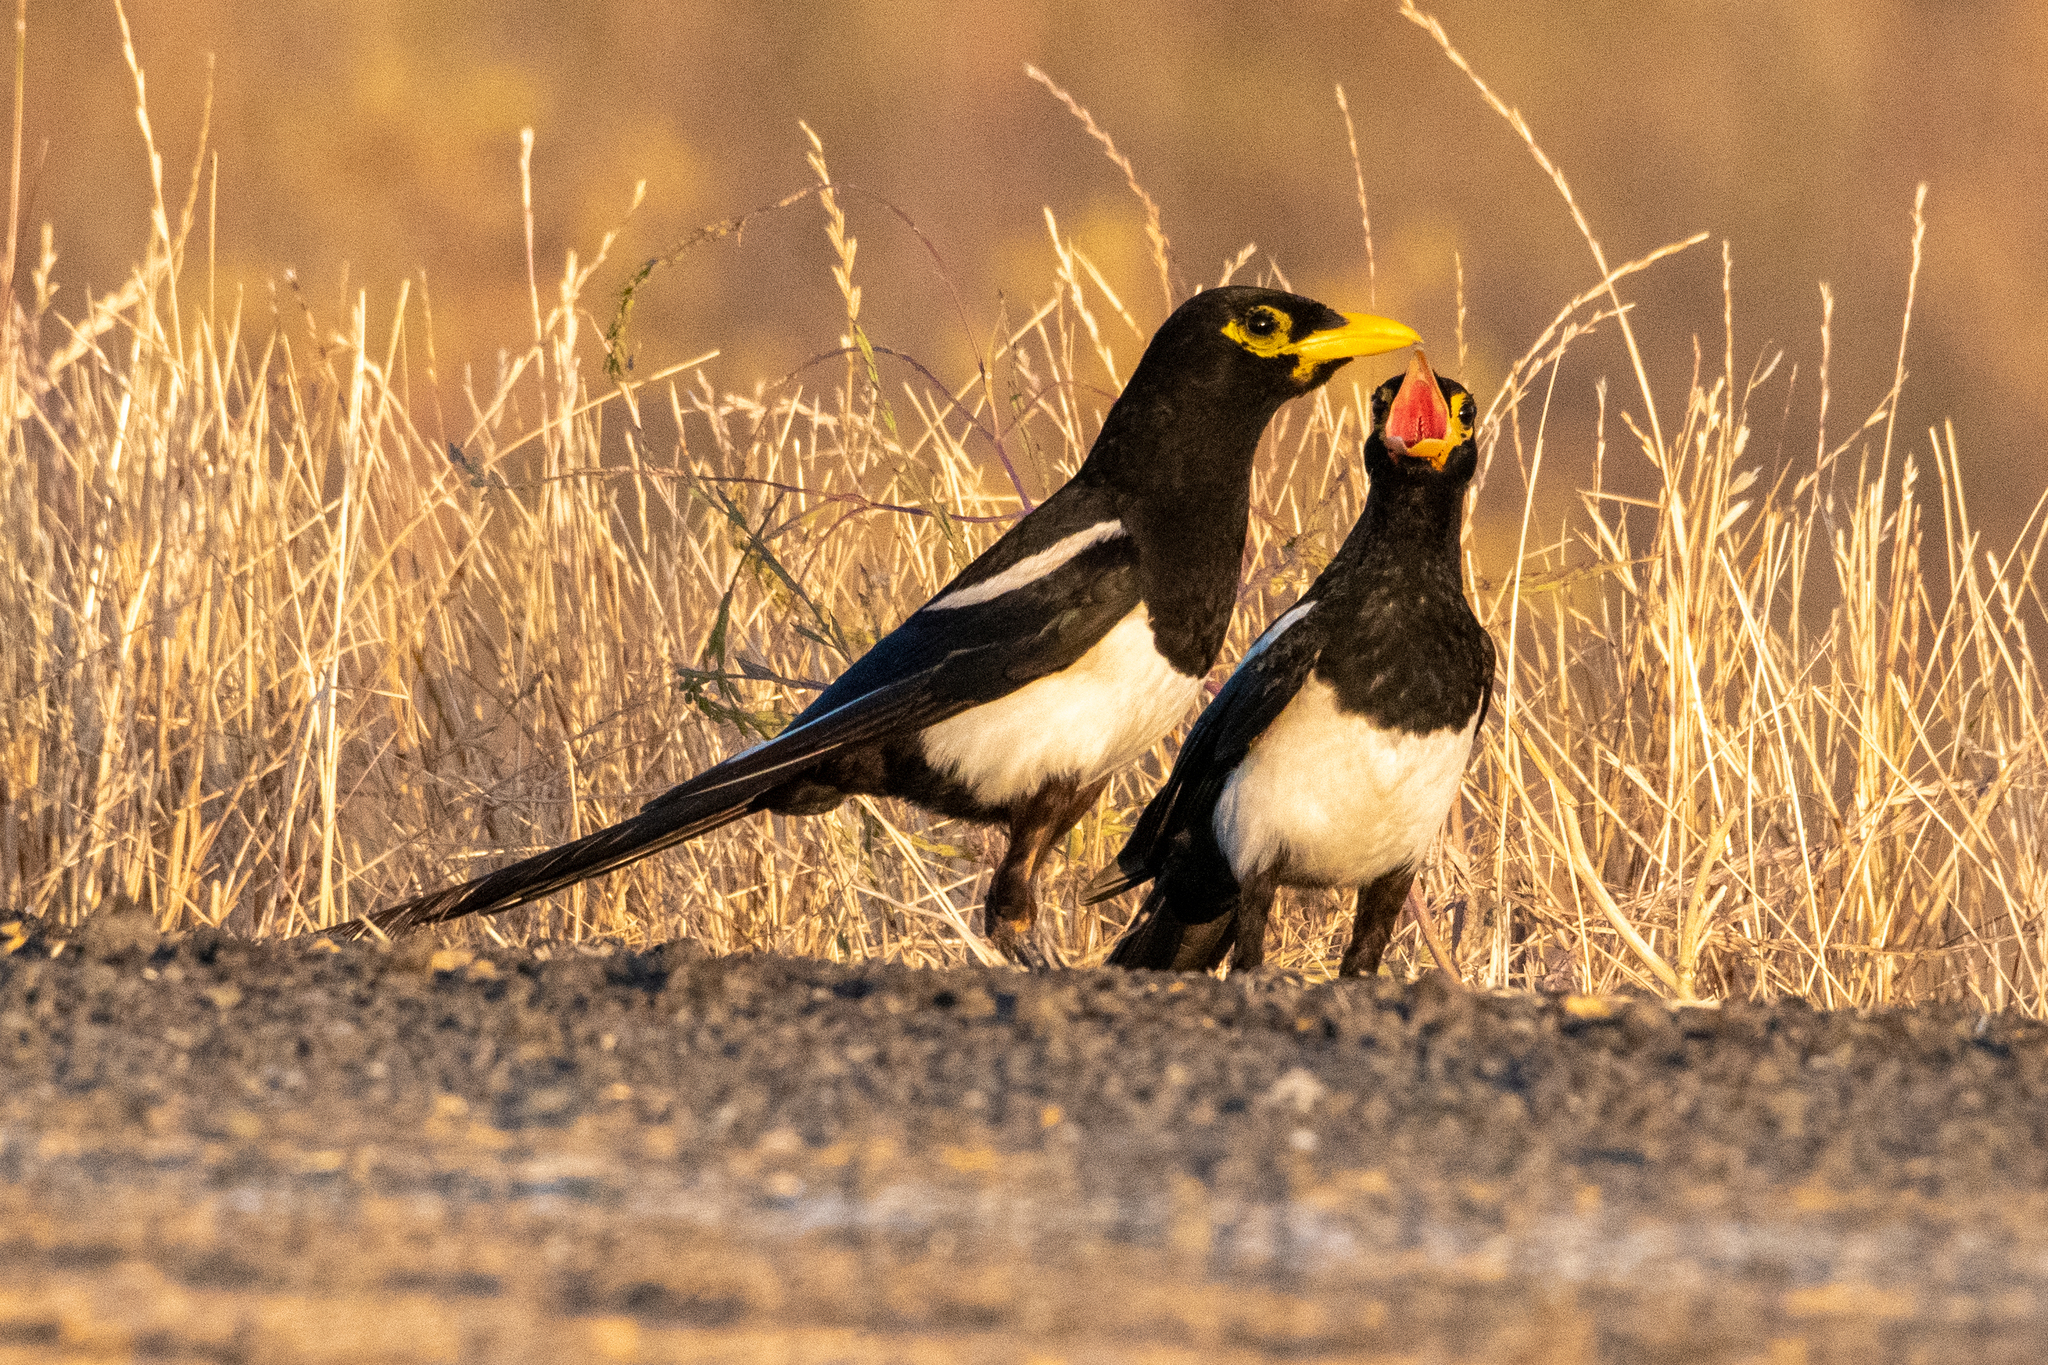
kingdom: Animalia
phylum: Chordata
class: Aves
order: Passeriformes
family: Corvidae
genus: Pica
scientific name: Pica nuttalli
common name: Yellow-billed magpie
